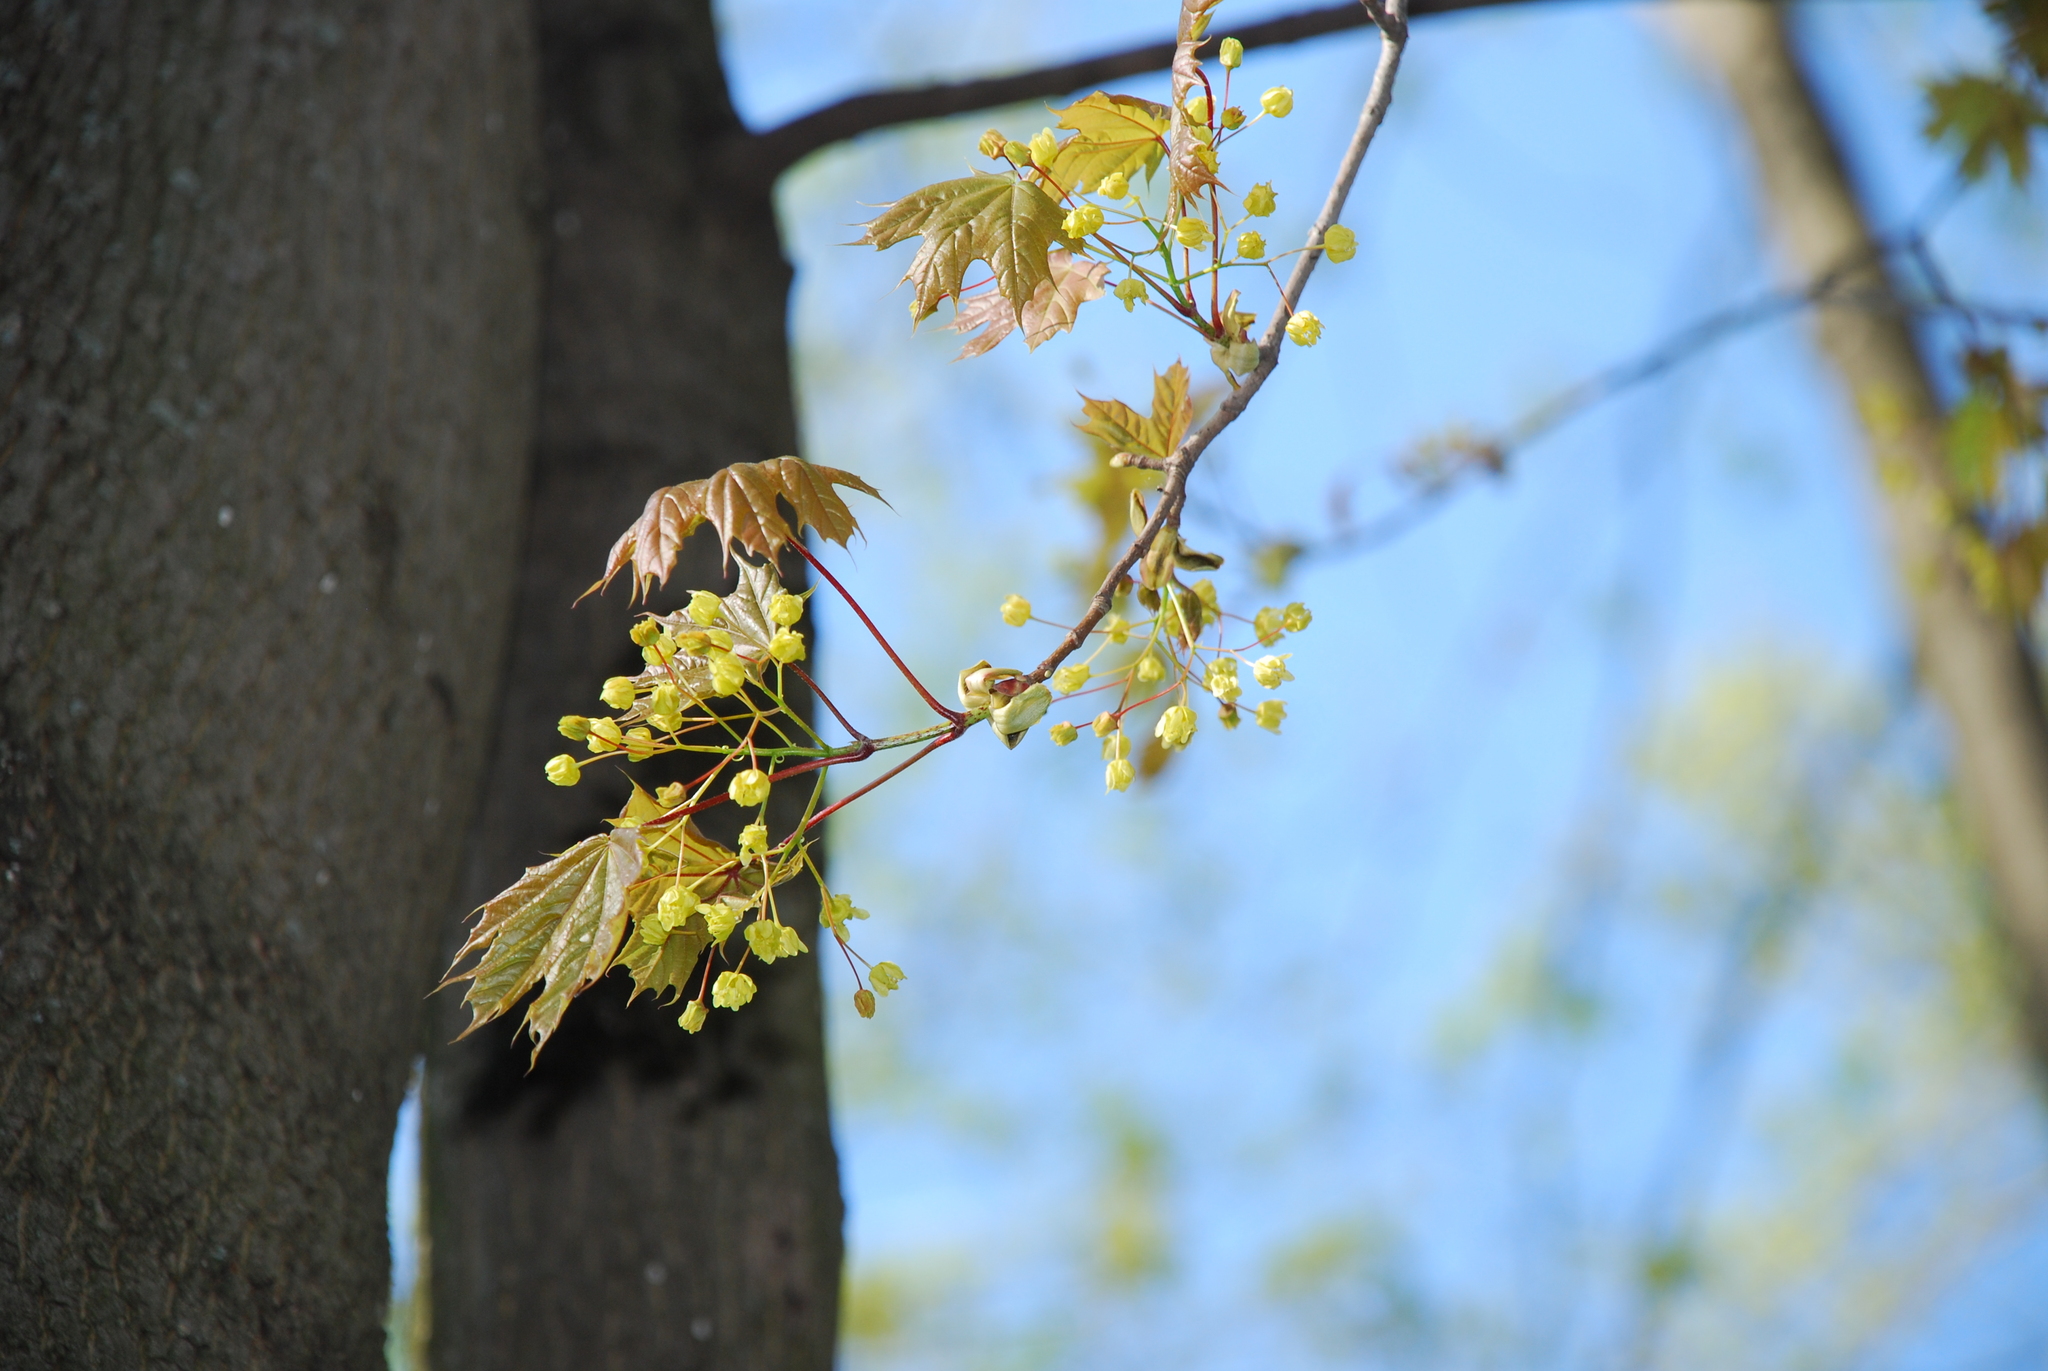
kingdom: Plantae
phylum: Tracheophyta
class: Magnoliopsida
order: Sapindales
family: Sapindaceae
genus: Acer
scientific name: Acer platanoides
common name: Norway maple
